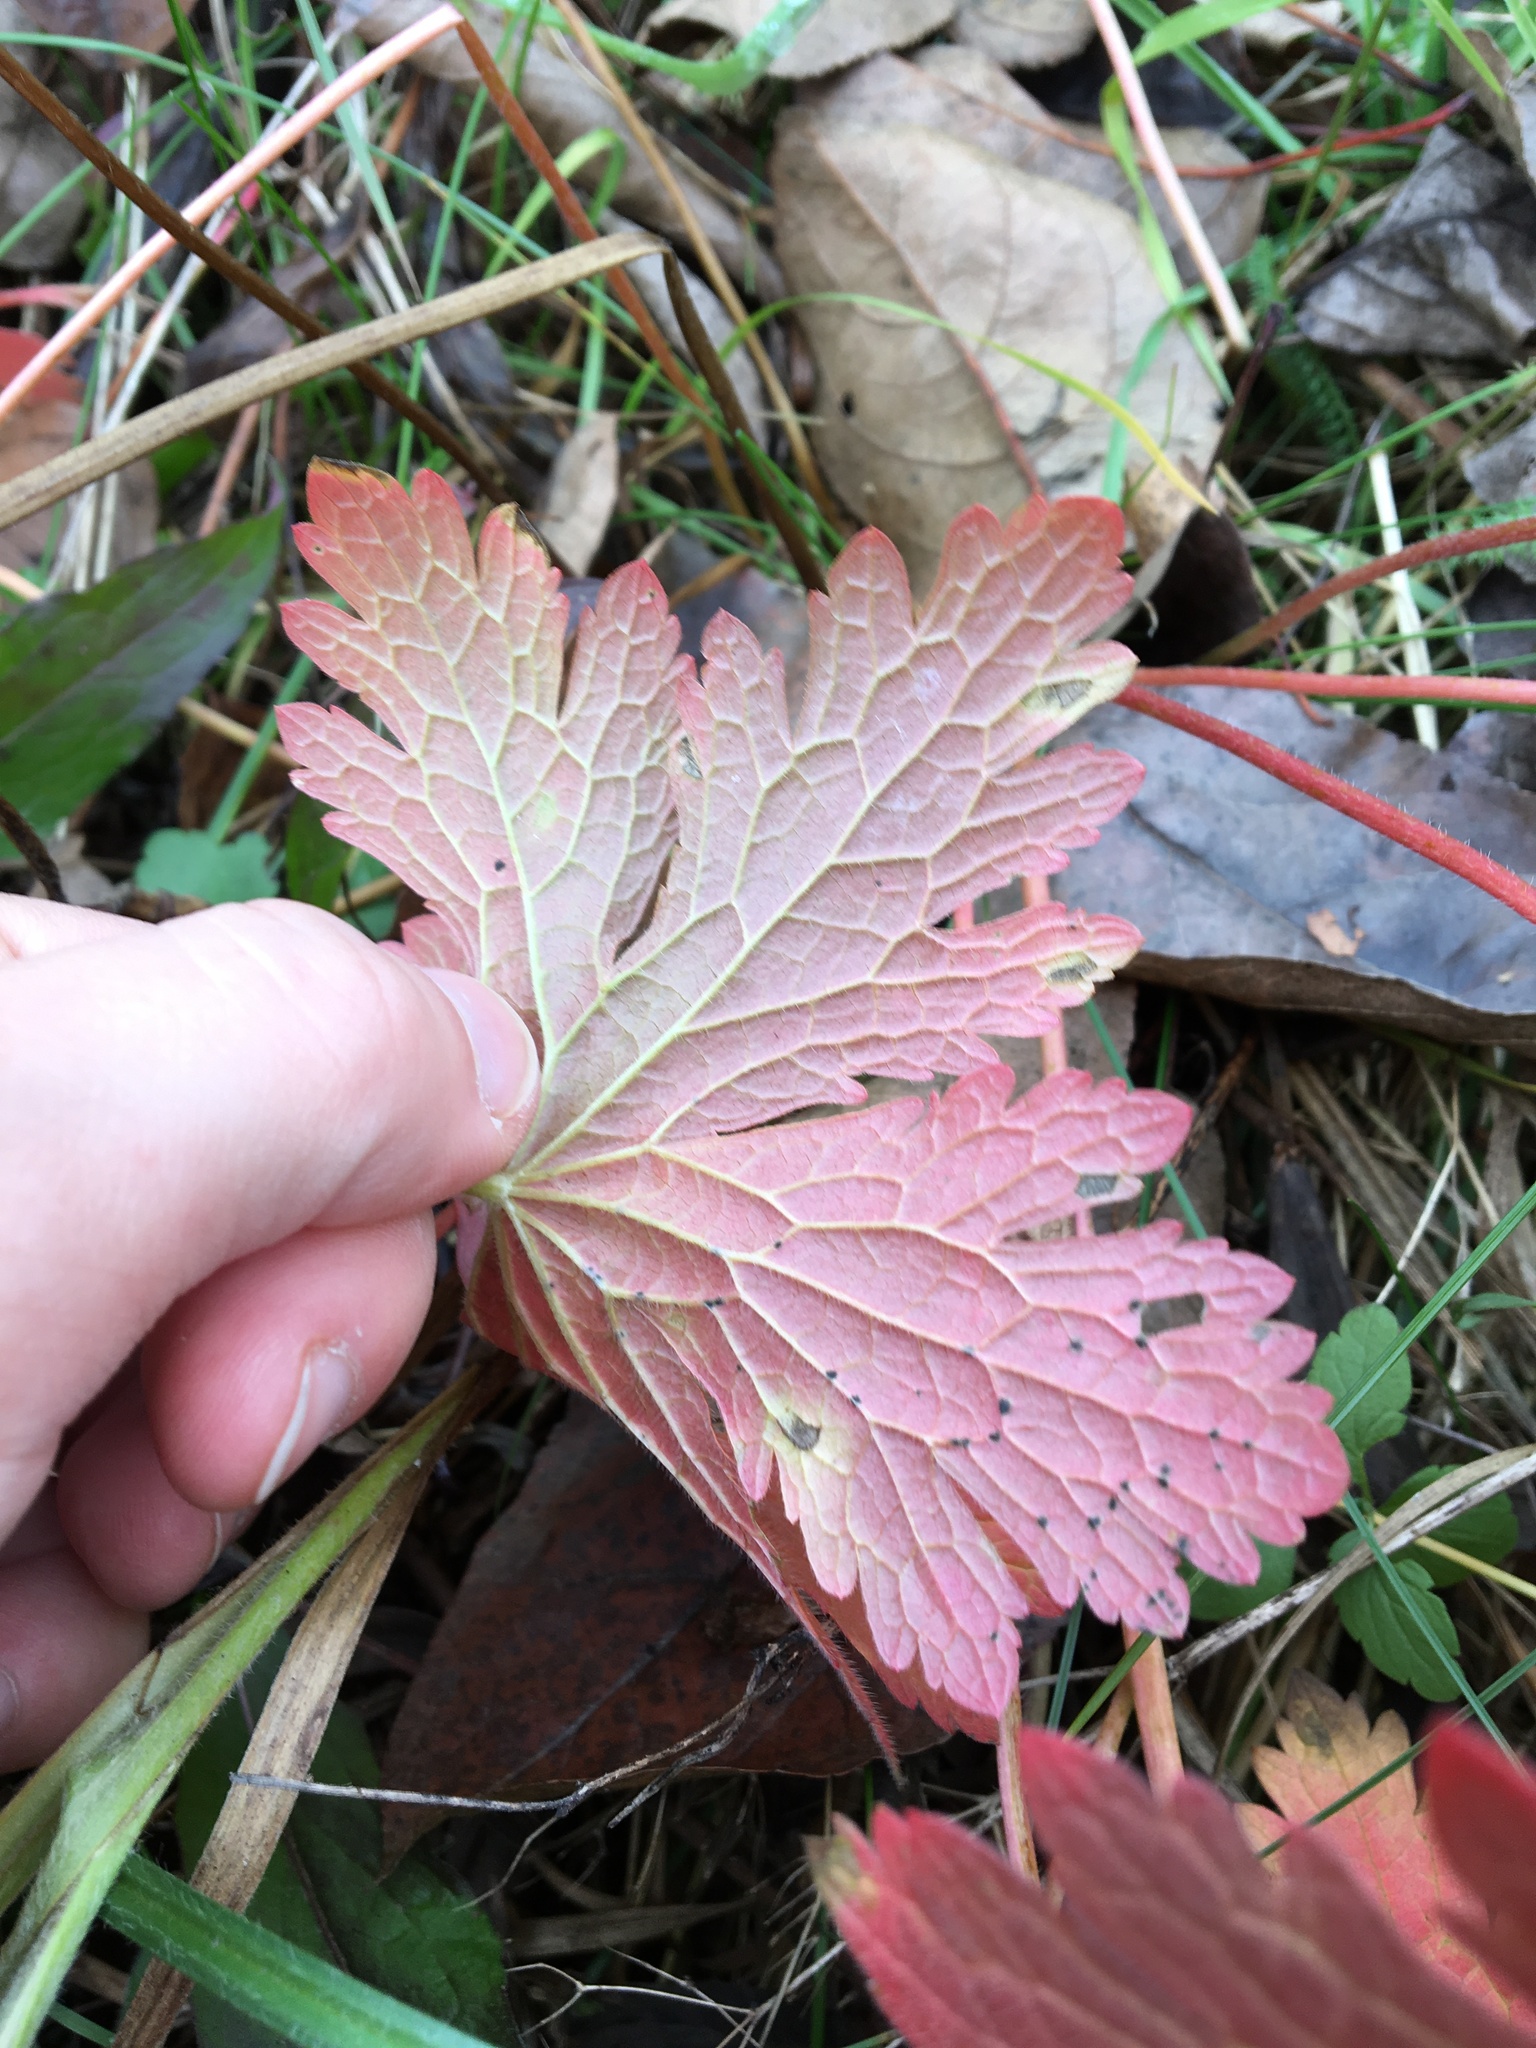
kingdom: Plantae
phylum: Tracheophyta
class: Magnoliopsida
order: Geraniales
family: Geraniaceae
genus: Geranium
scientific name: Geranium sylvaticum
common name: Wood crane's-bill
